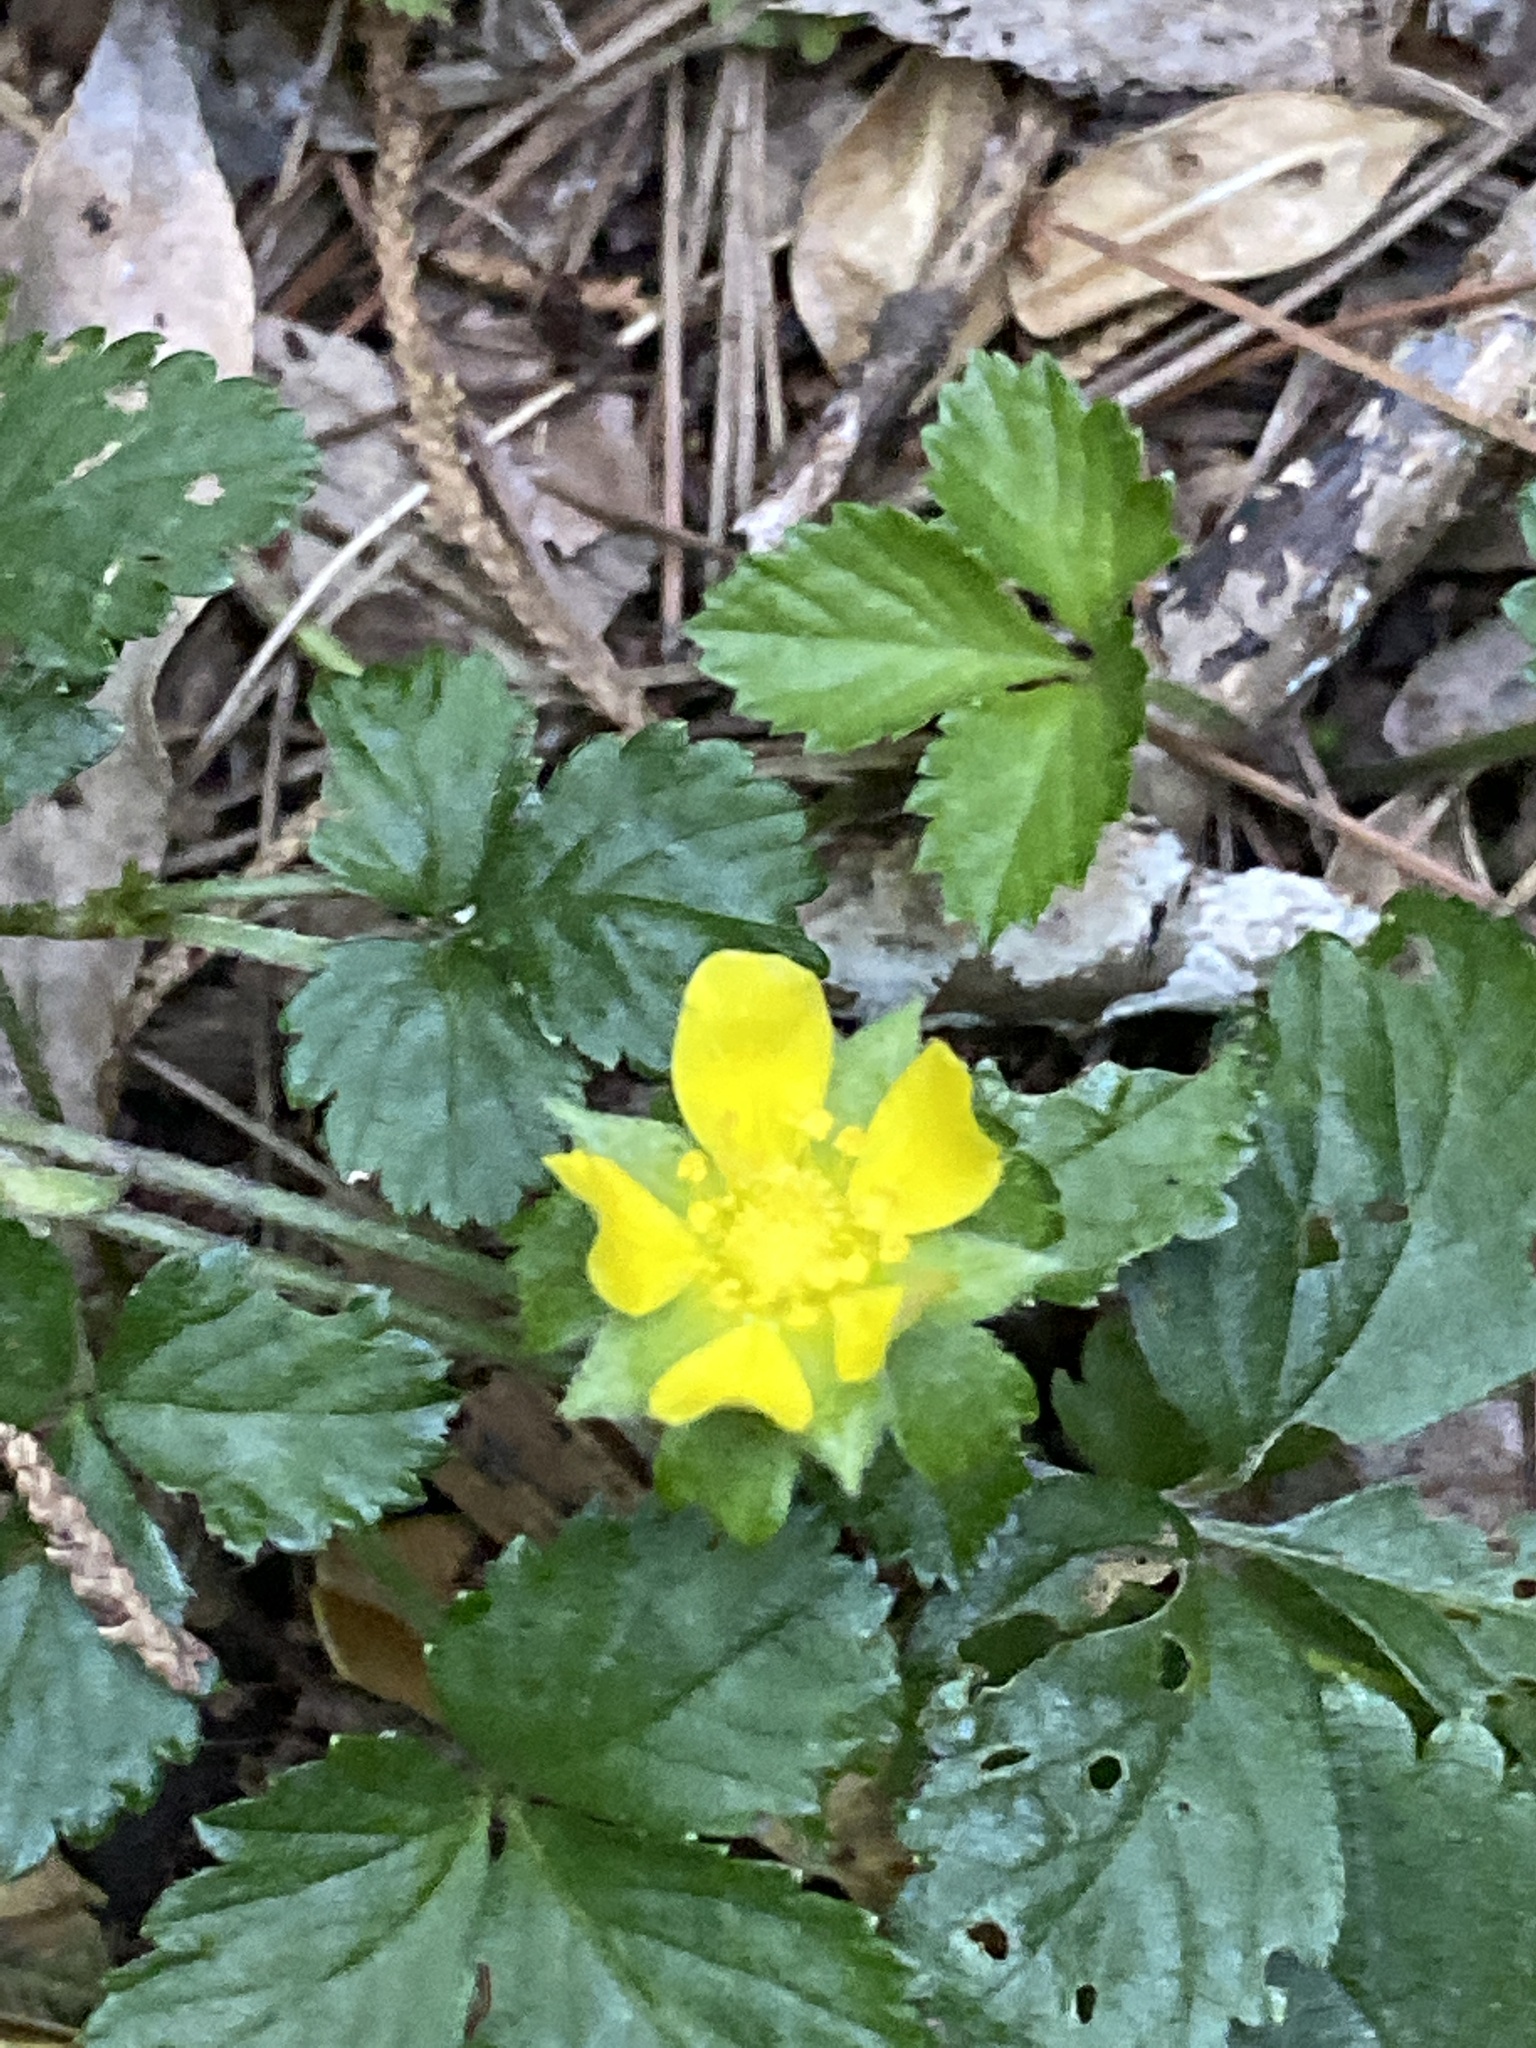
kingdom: Plantae
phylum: Tracheophyta
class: Magnoliopsida
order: Rosales
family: Rosaceae
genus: Potentilla
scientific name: Potentilla indica
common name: Yellow-flowered strawberry
